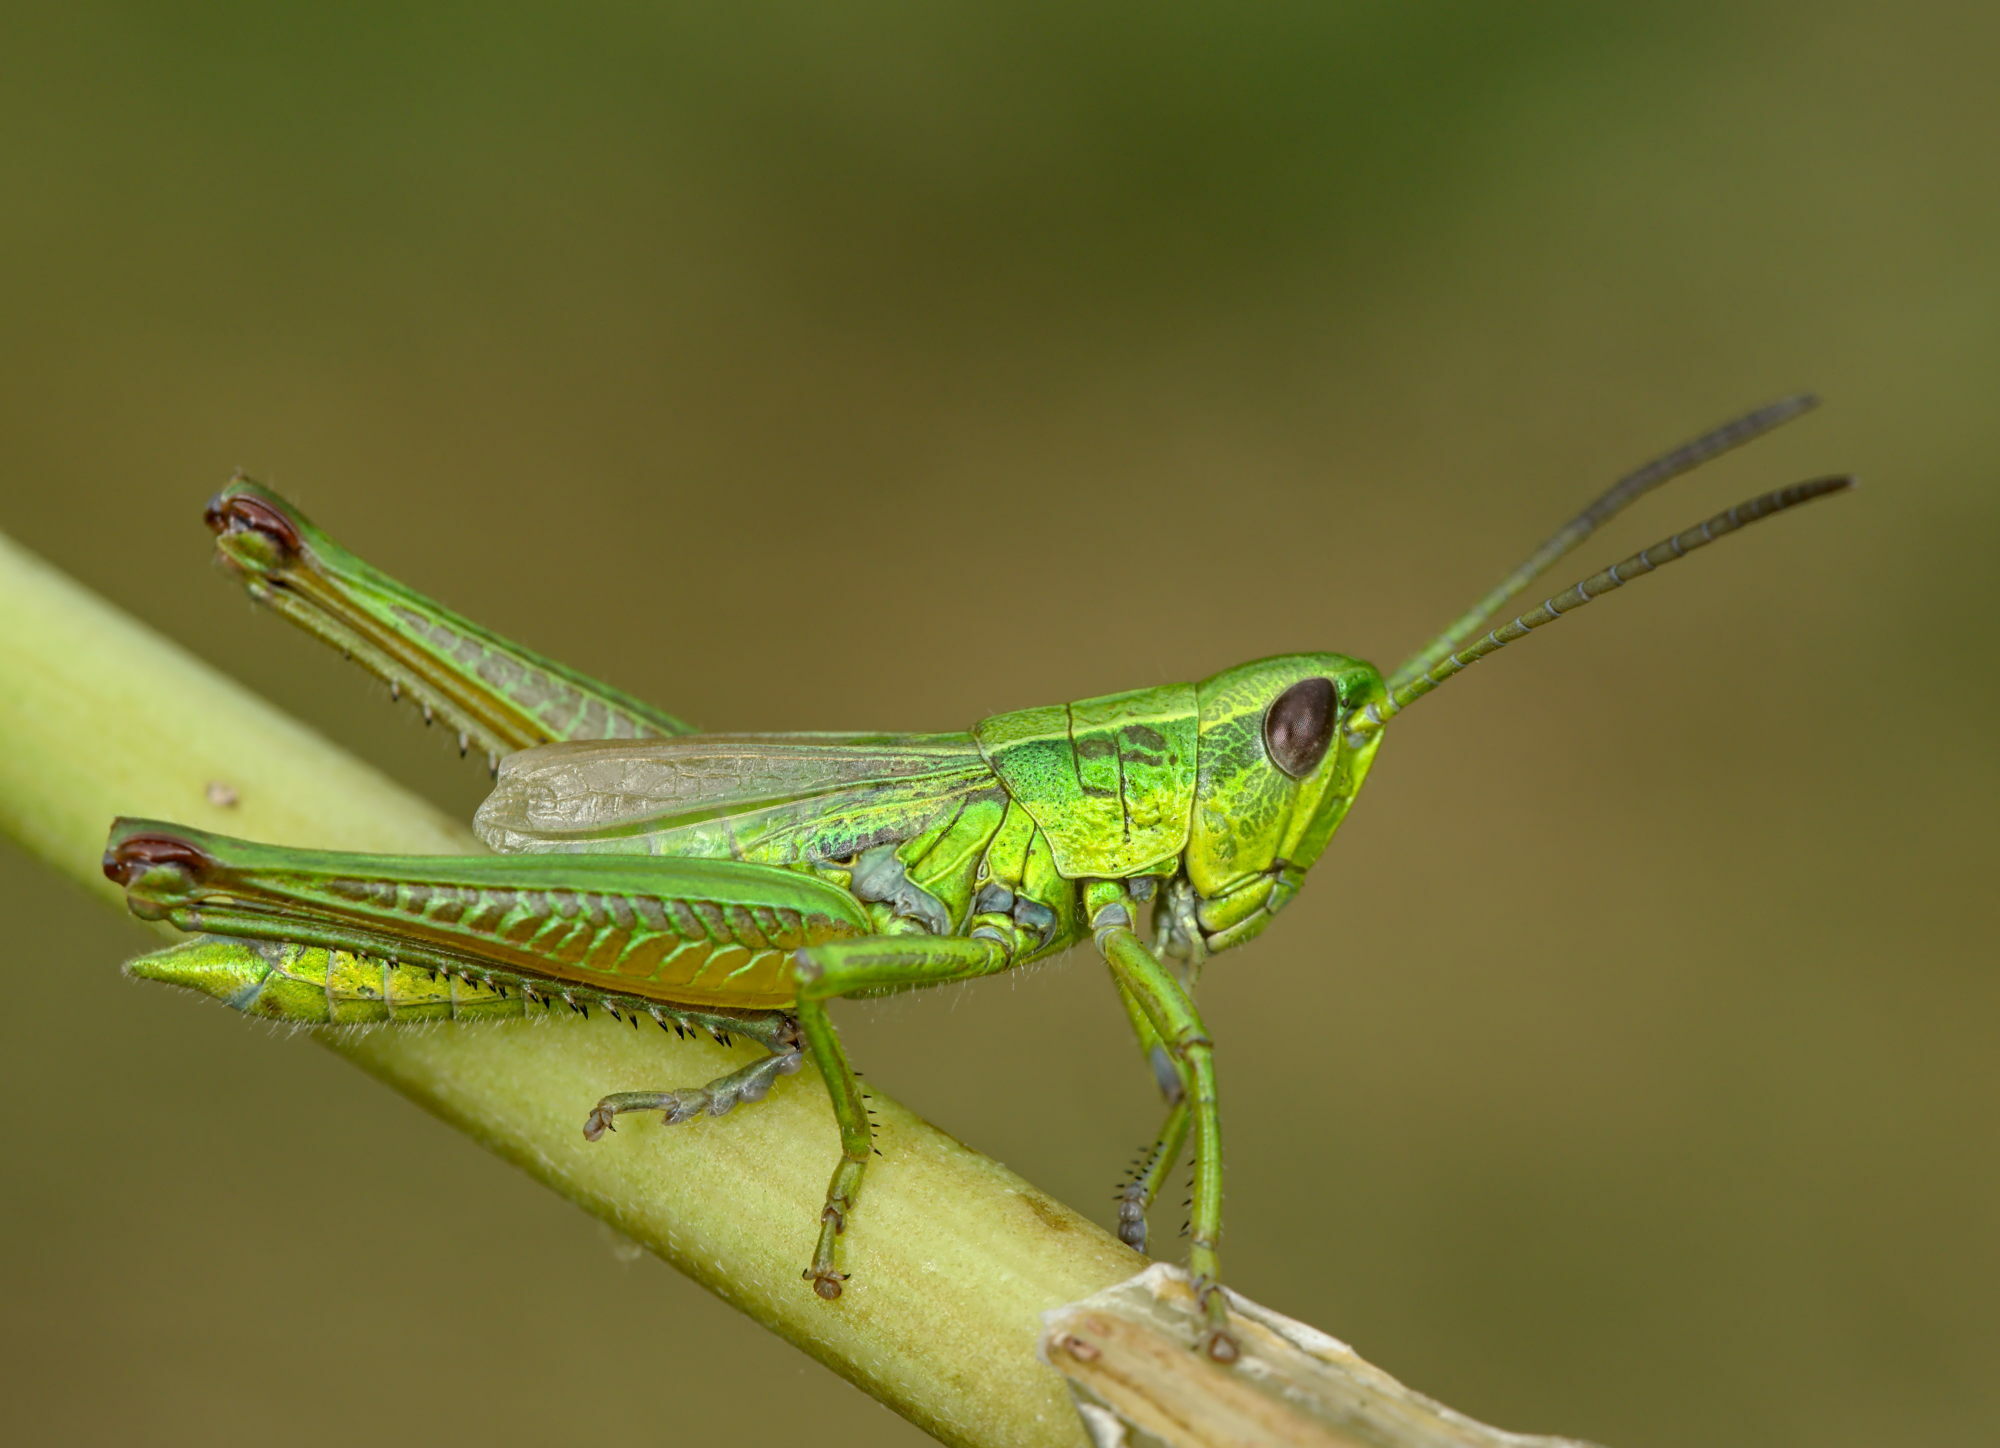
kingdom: Animalia
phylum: Arthropoda
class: Insecta
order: Orthoptera
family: Acrididae
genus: Euthystira
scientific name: Euthystira brachyptera
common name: Small gold grasshopper
